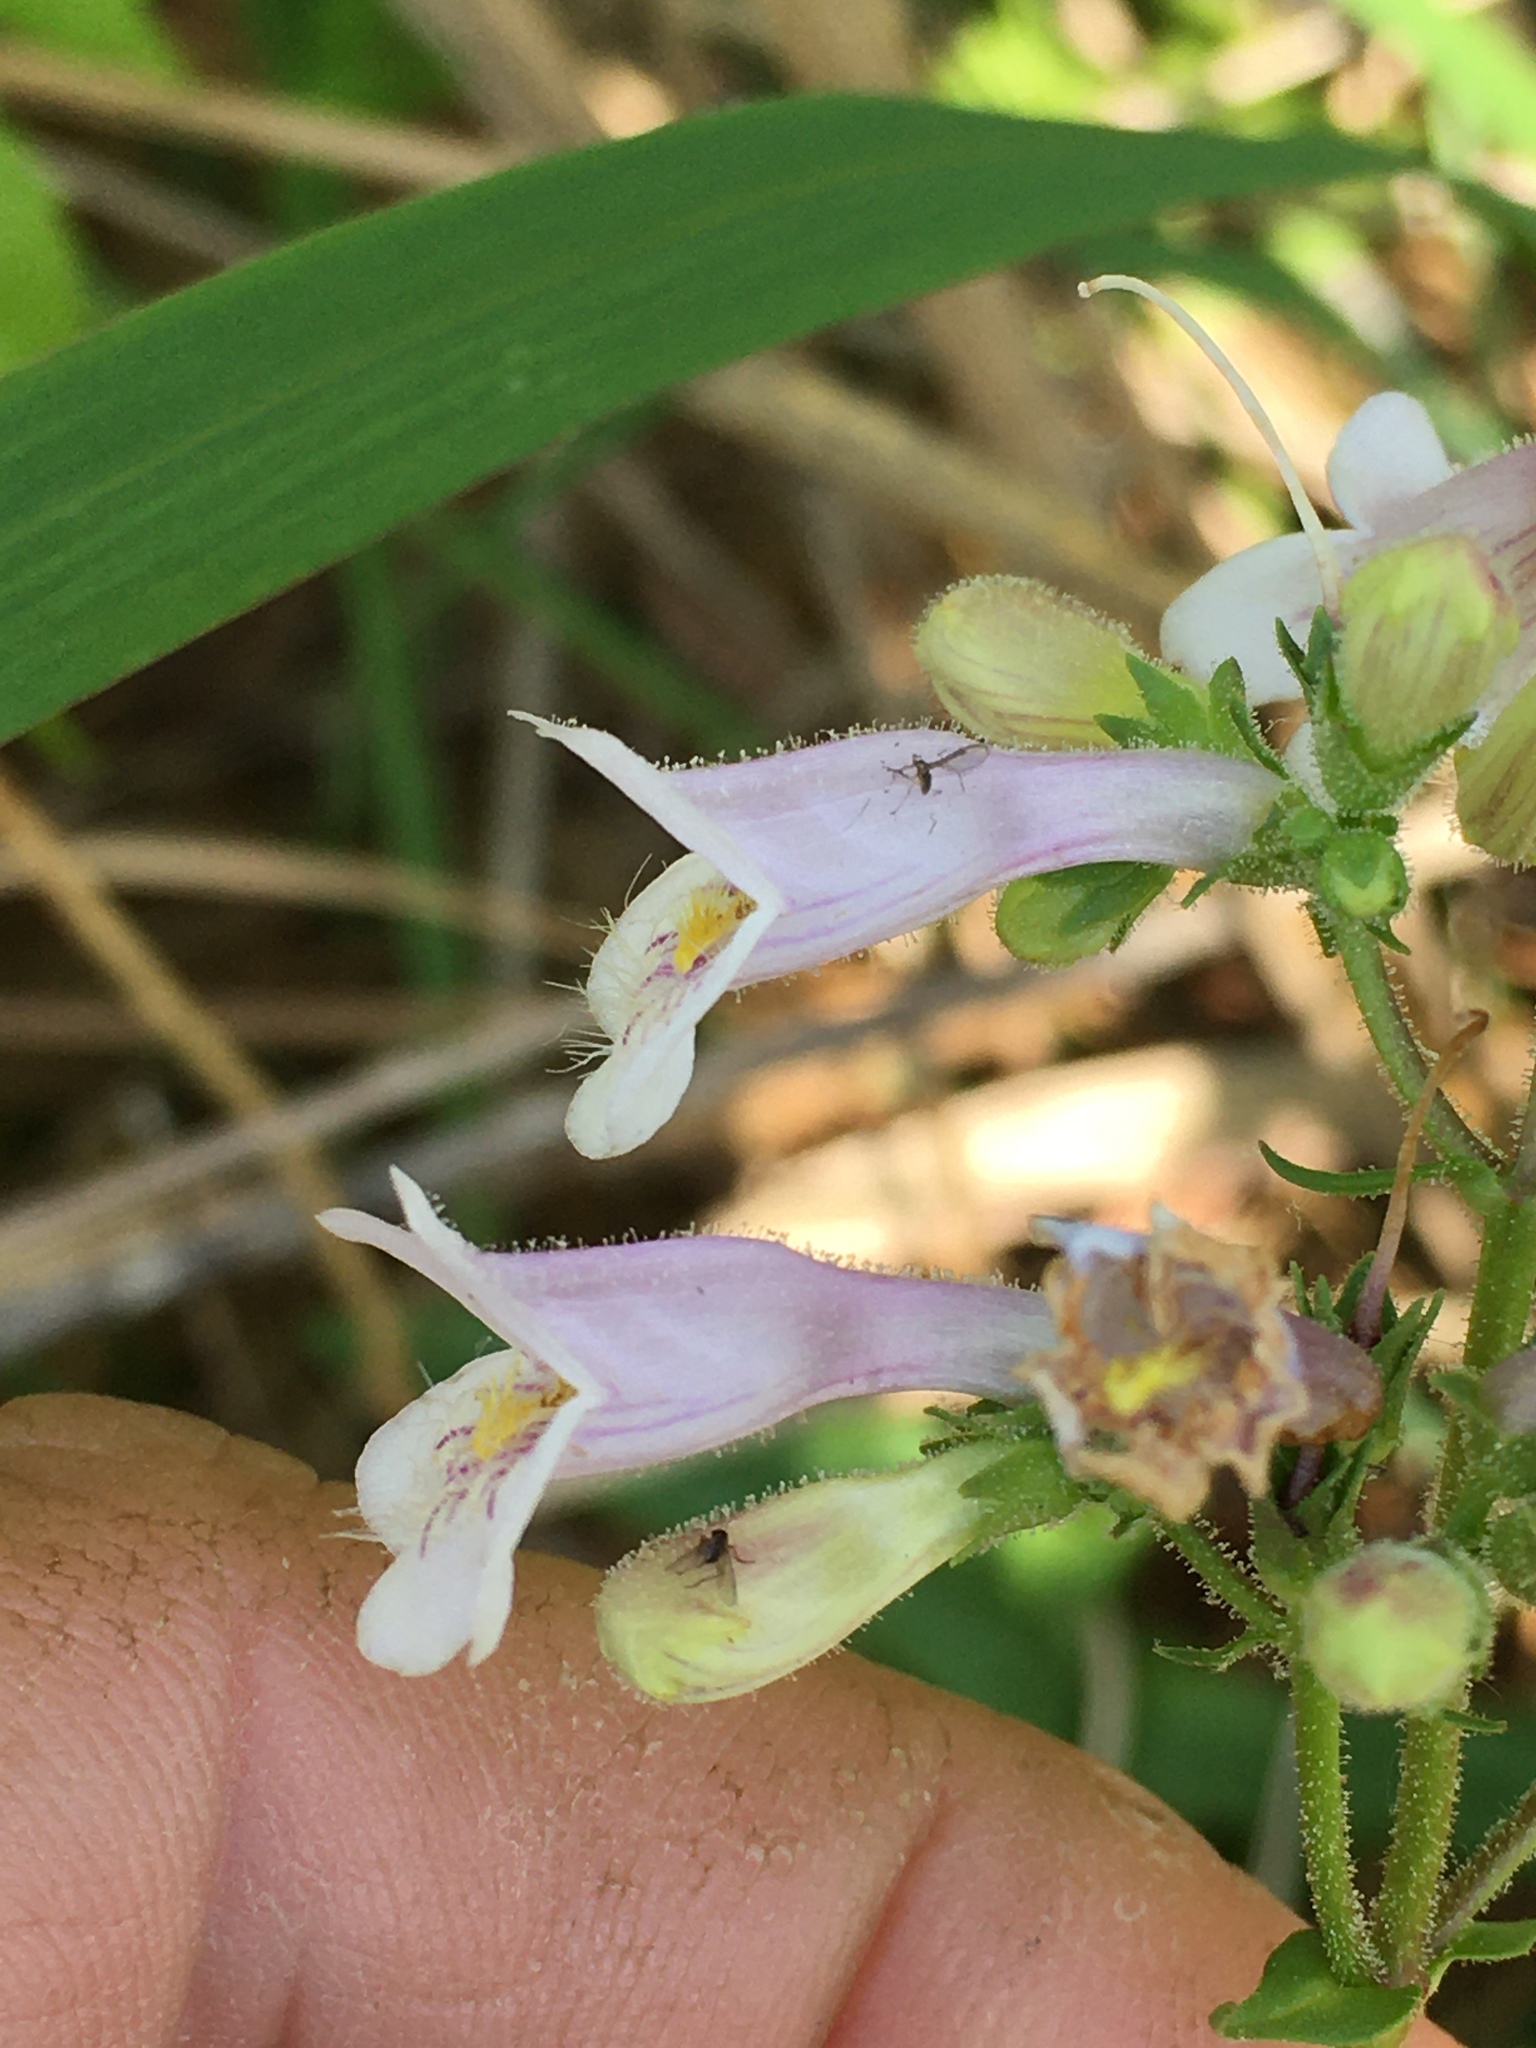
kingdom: Plantae
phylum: Tracheophyta
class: Magnoliopsida
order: Lamiales
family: Plantaginaceae
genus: Penstemon
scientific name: Penstemon laevigatus
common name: Eastern beardtongue
